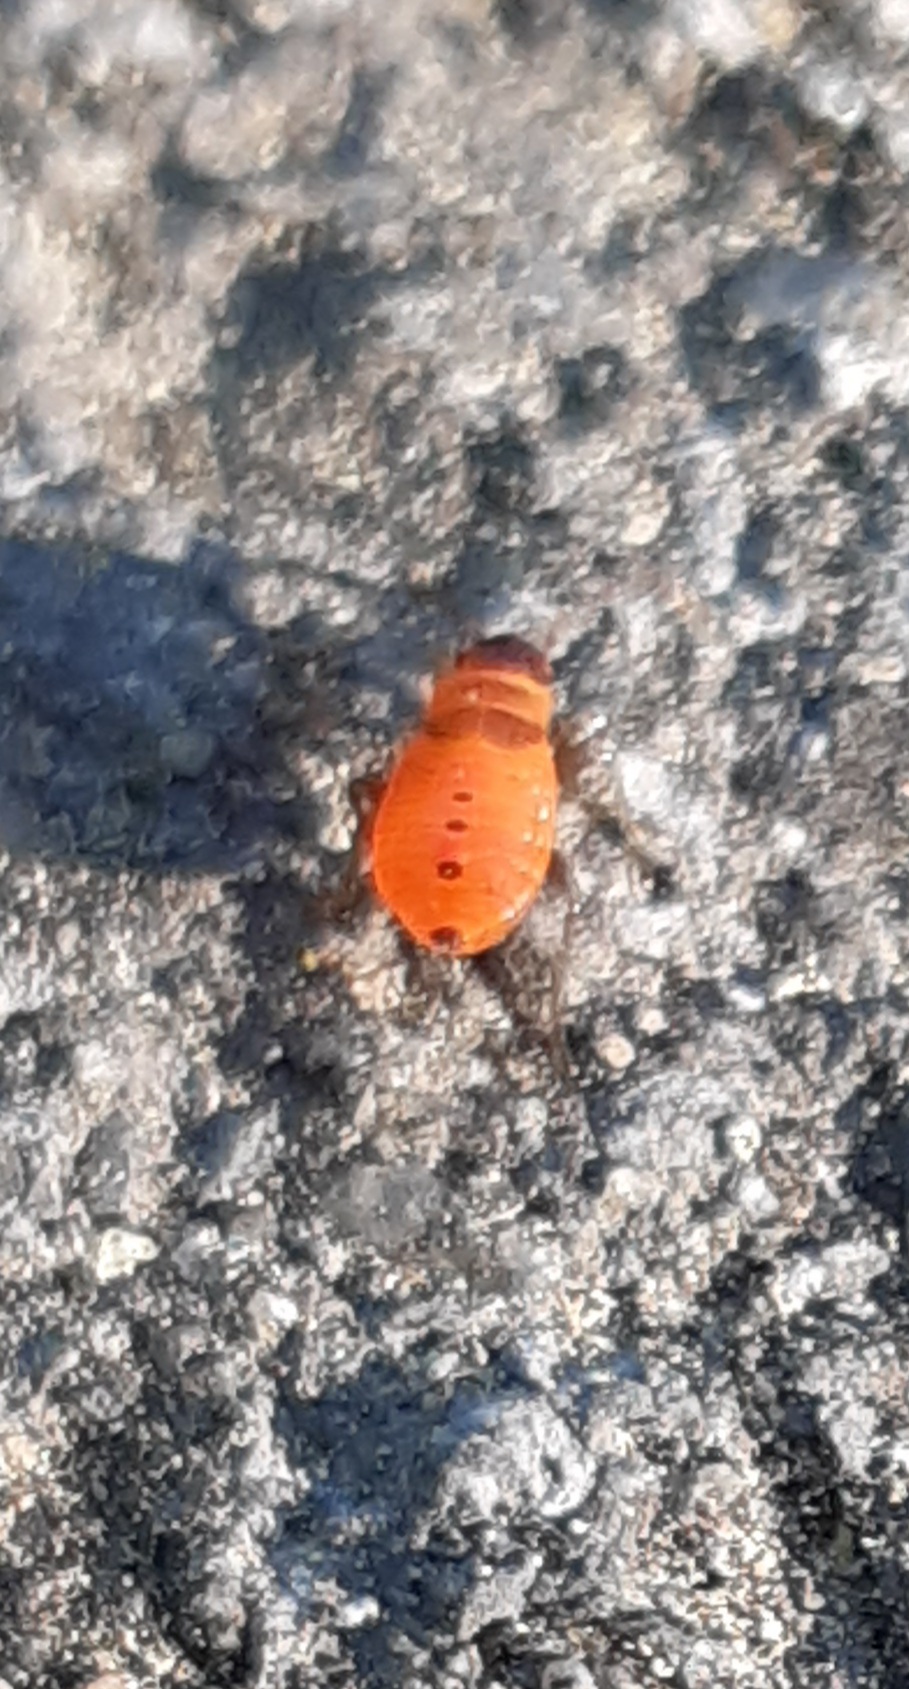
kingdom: Animalia
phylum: Arthropoda
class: Insecta
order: Hemiptera
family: Pyrrhocoridae
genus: Pyrrhocoris
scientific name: Pyrrhocoris apterus
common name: Firebug
